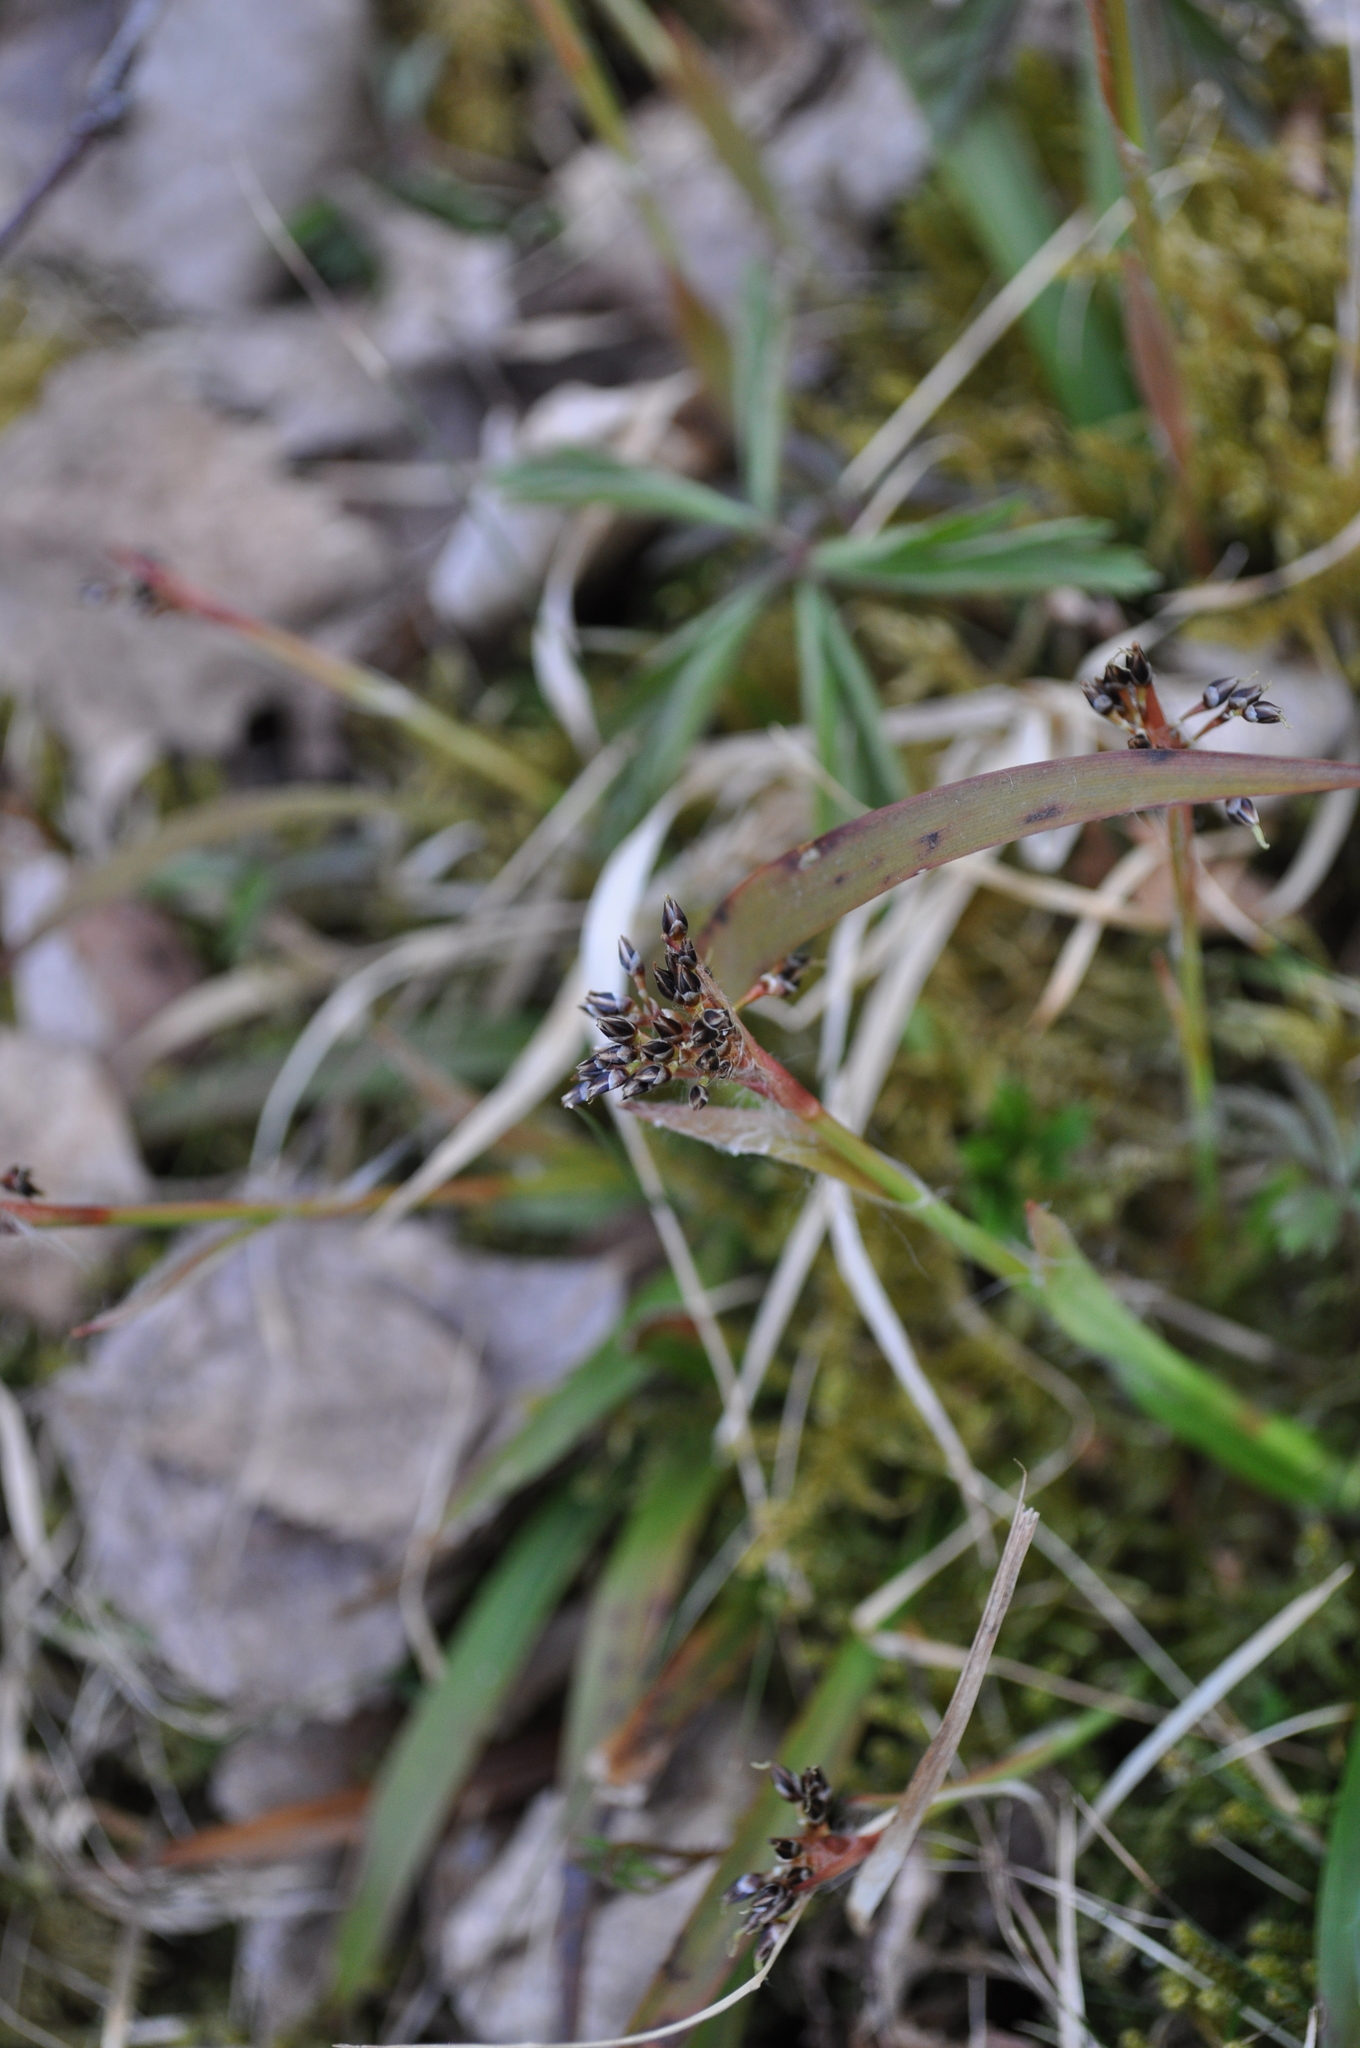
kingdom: Plantae
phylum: Tracheophyta
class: Liliopsida
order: Poales
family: Juncaceae
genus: Luzula
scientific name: Luzula pilosa
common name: Hairy wood-rush
